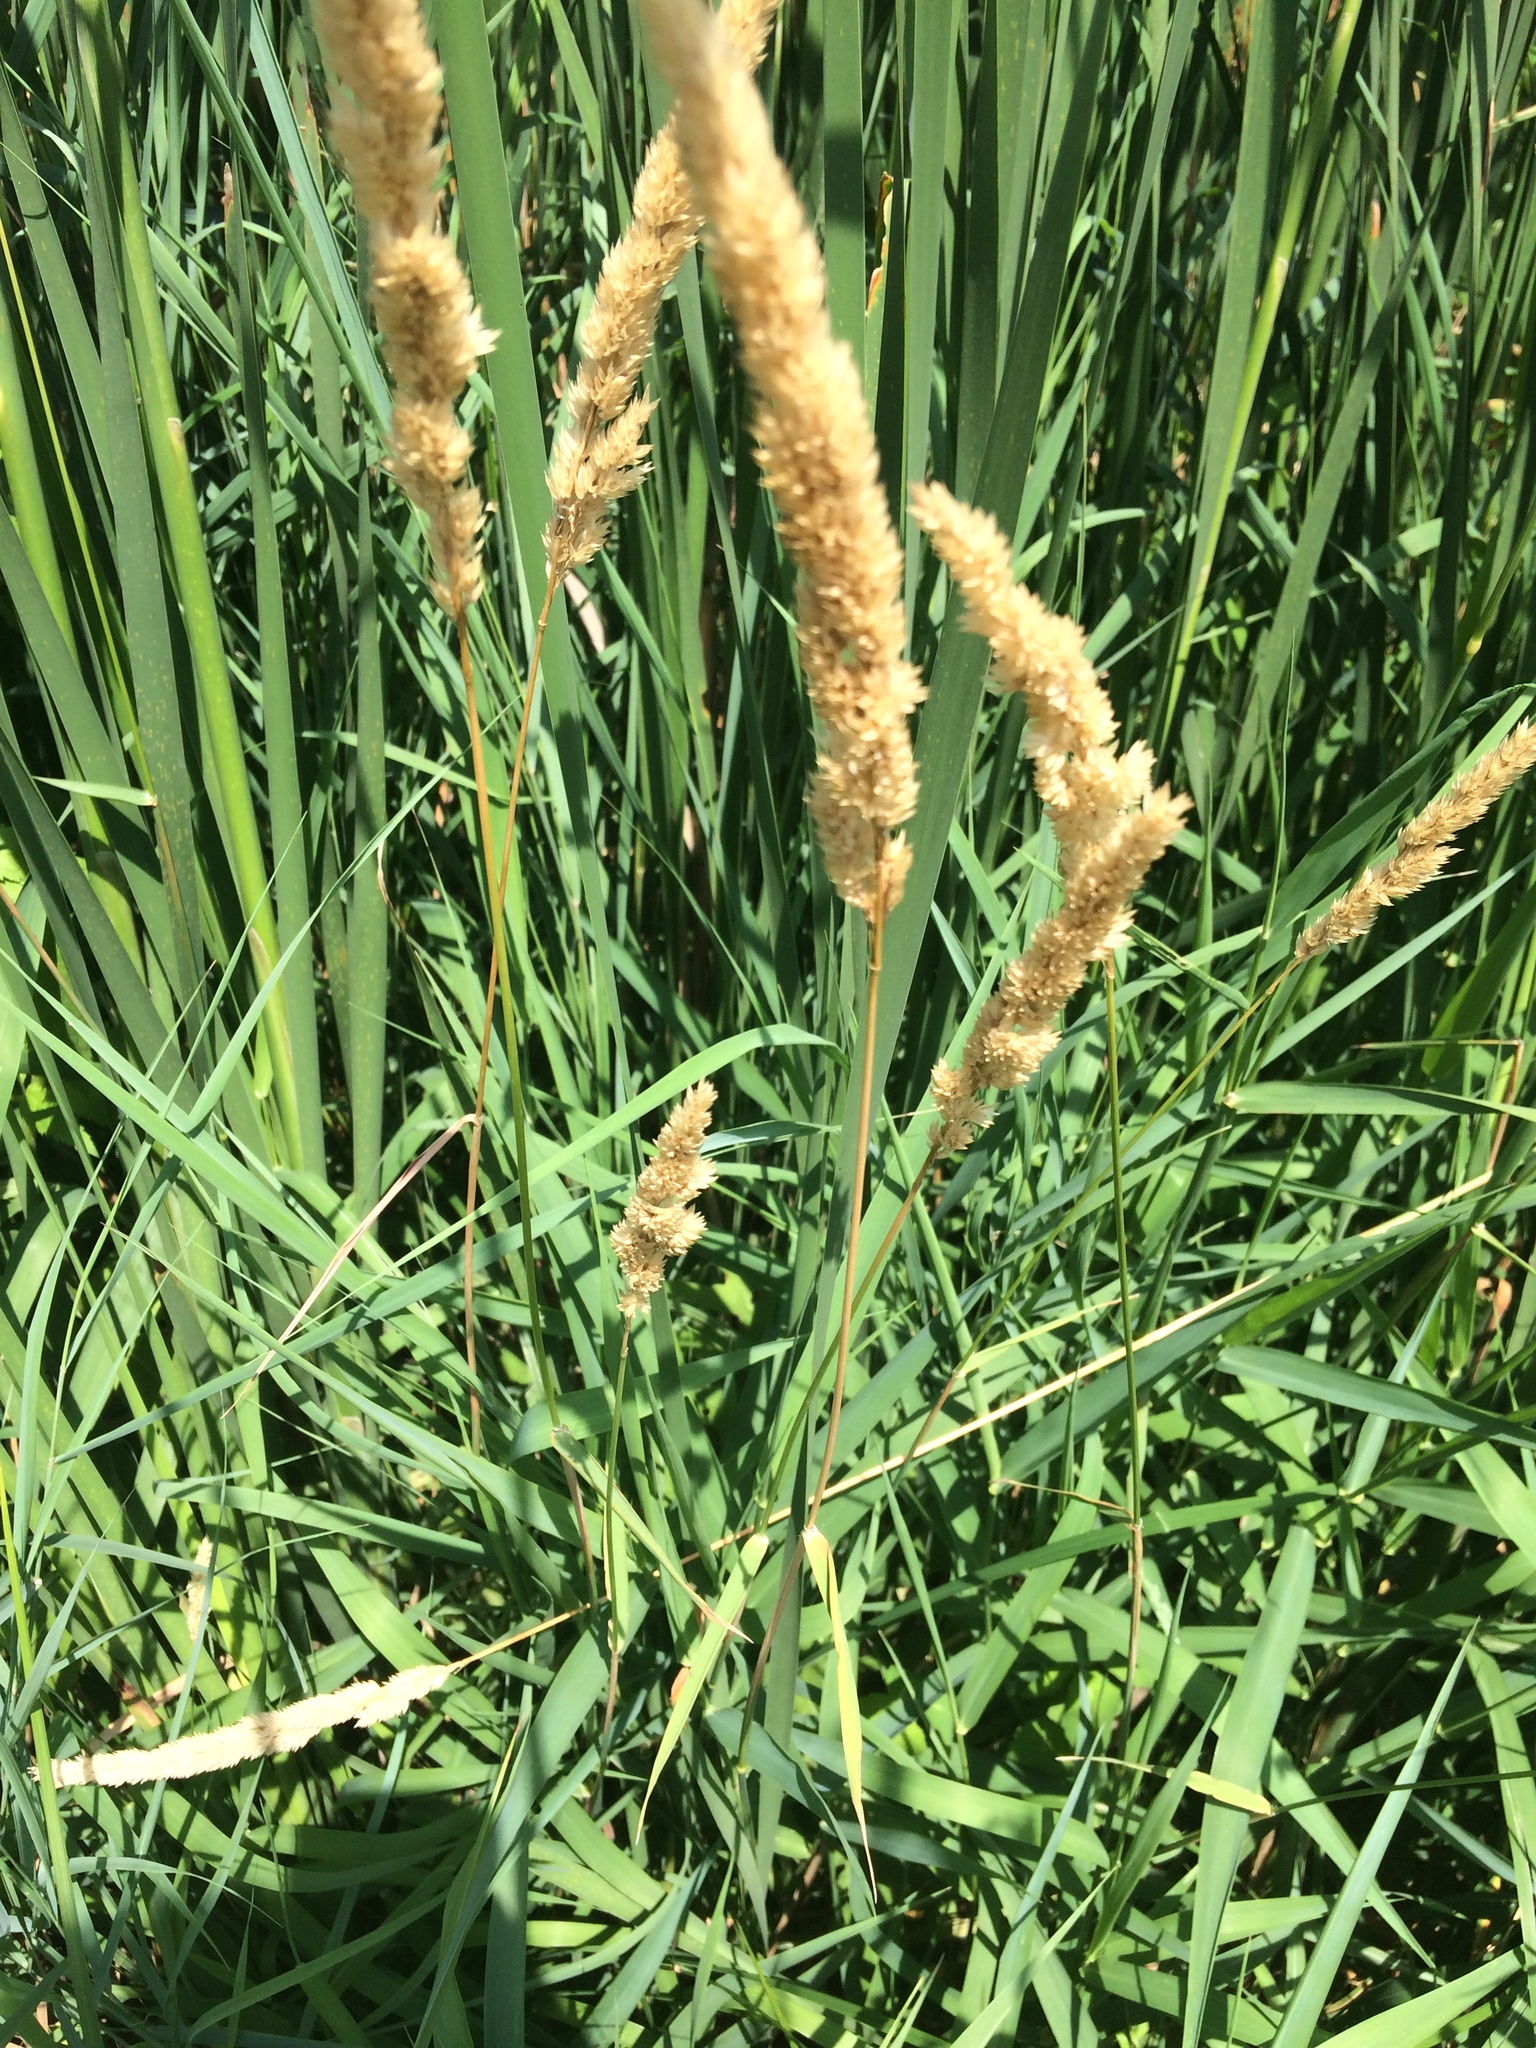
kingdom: Plantae
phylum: Tracheophyta
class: Liliopsida
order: Poales
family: Poaceae
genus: Phalaris
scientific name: Phalaris arundinacea
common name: Reed canary-grass
